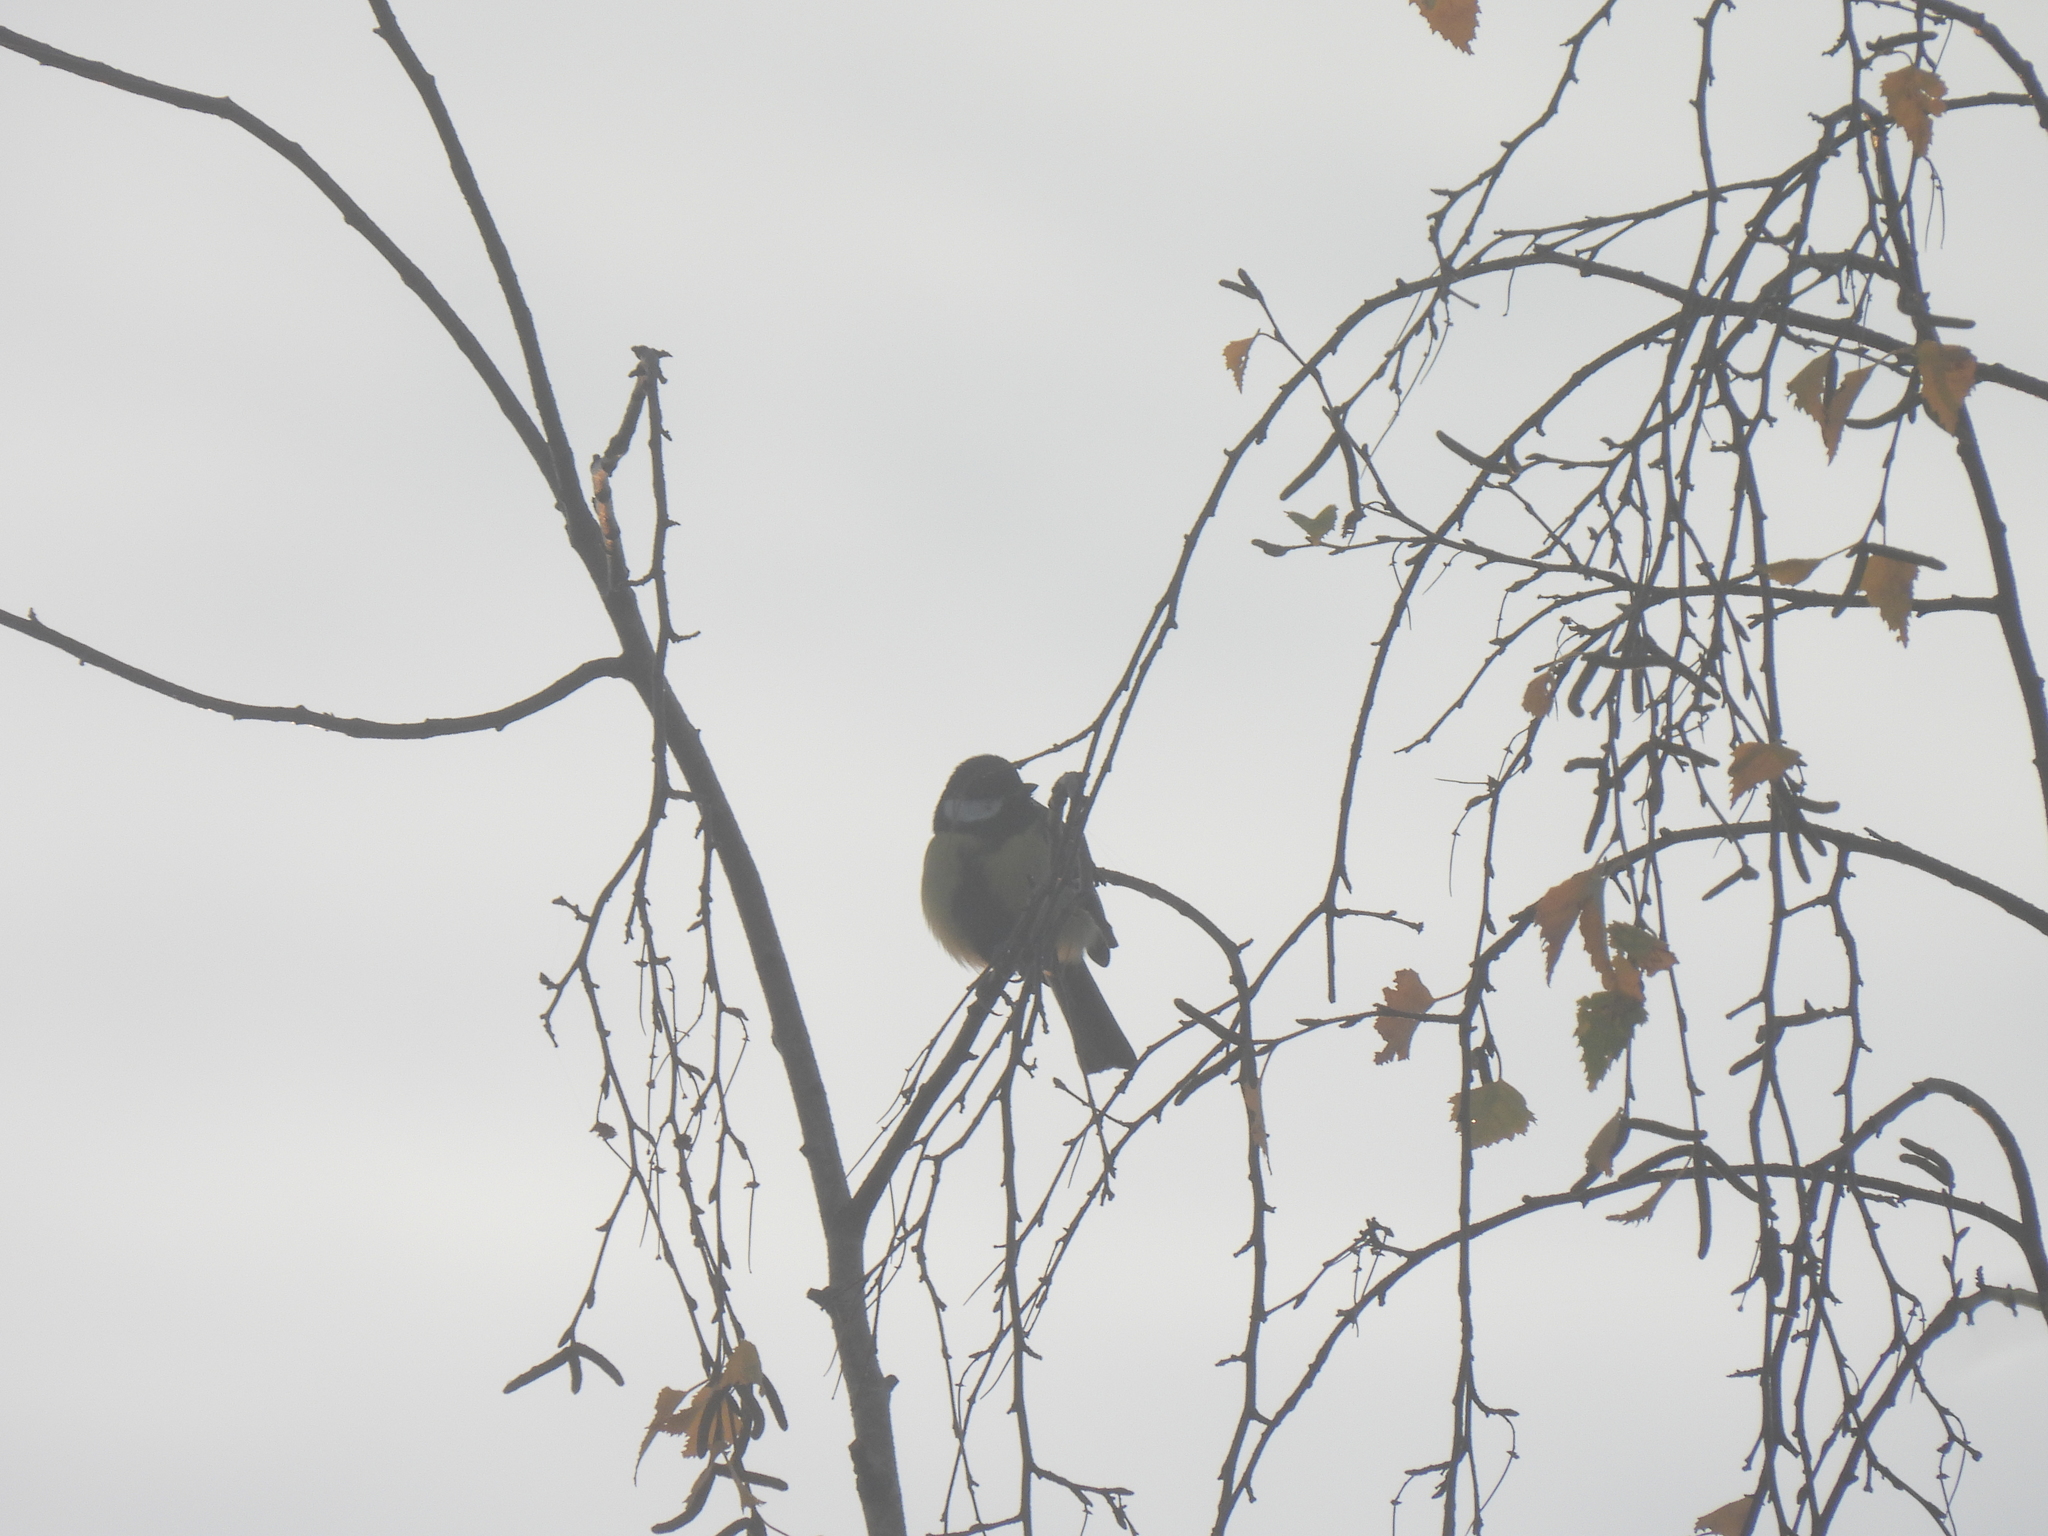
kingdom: Animalia
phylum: Chordata
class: Aves
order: Passeriformes
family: Paridae
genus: Parus
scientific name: Parus major
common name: Great tit
